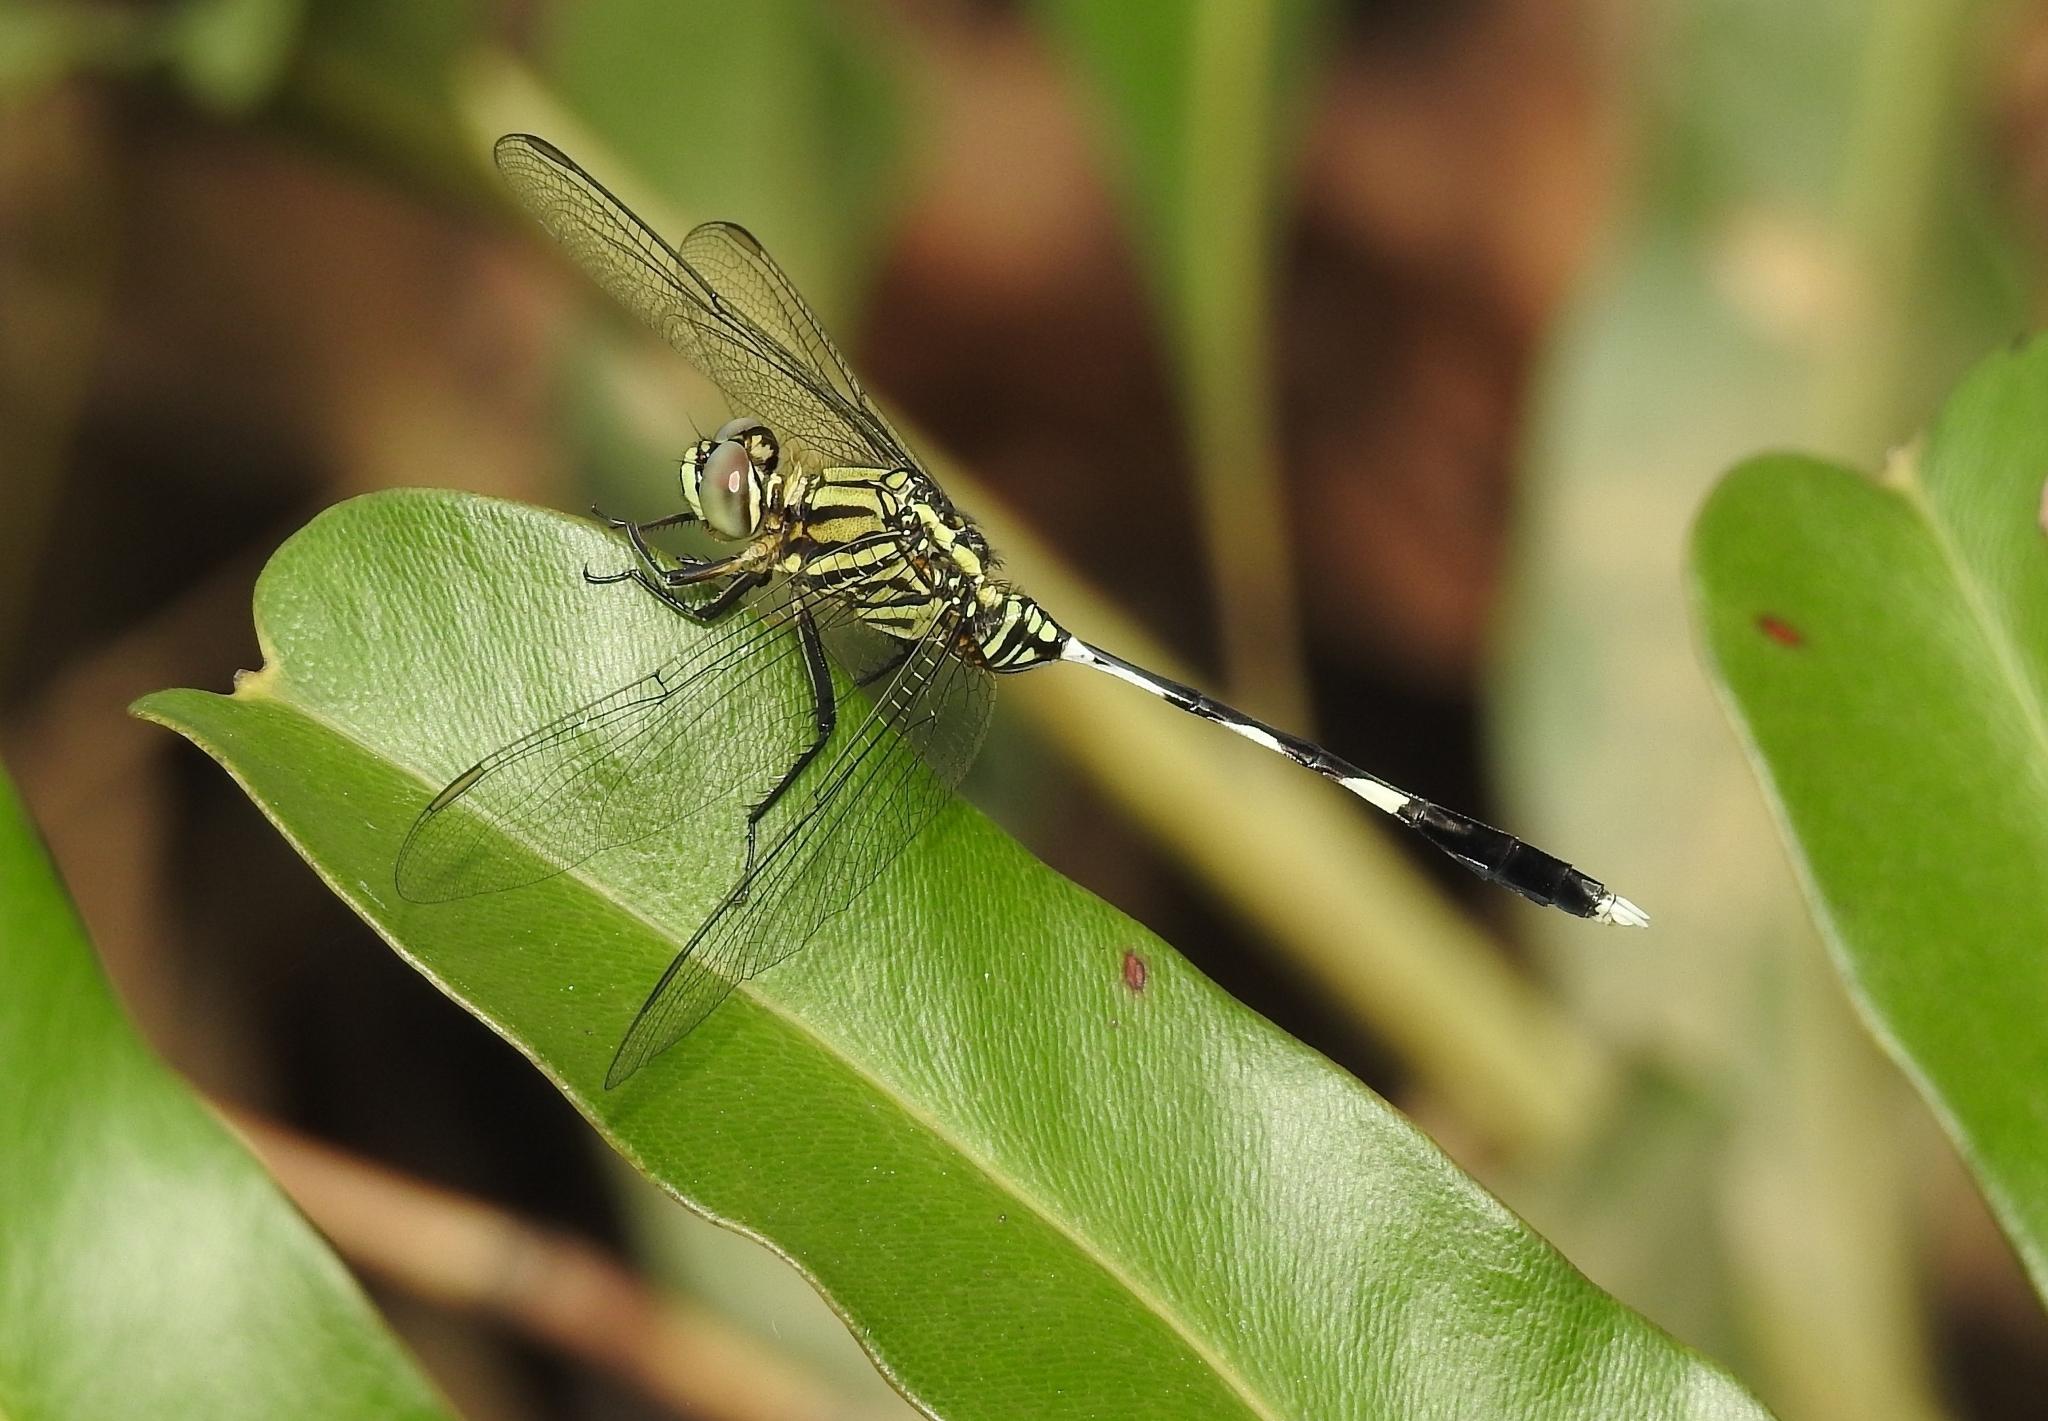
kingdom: Animalia
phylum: Arthropoda
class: Insecta
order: Odonata
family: Libellulidae
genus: Orthetrum
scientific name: Orthetrum sabina
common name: Slender skimmer
